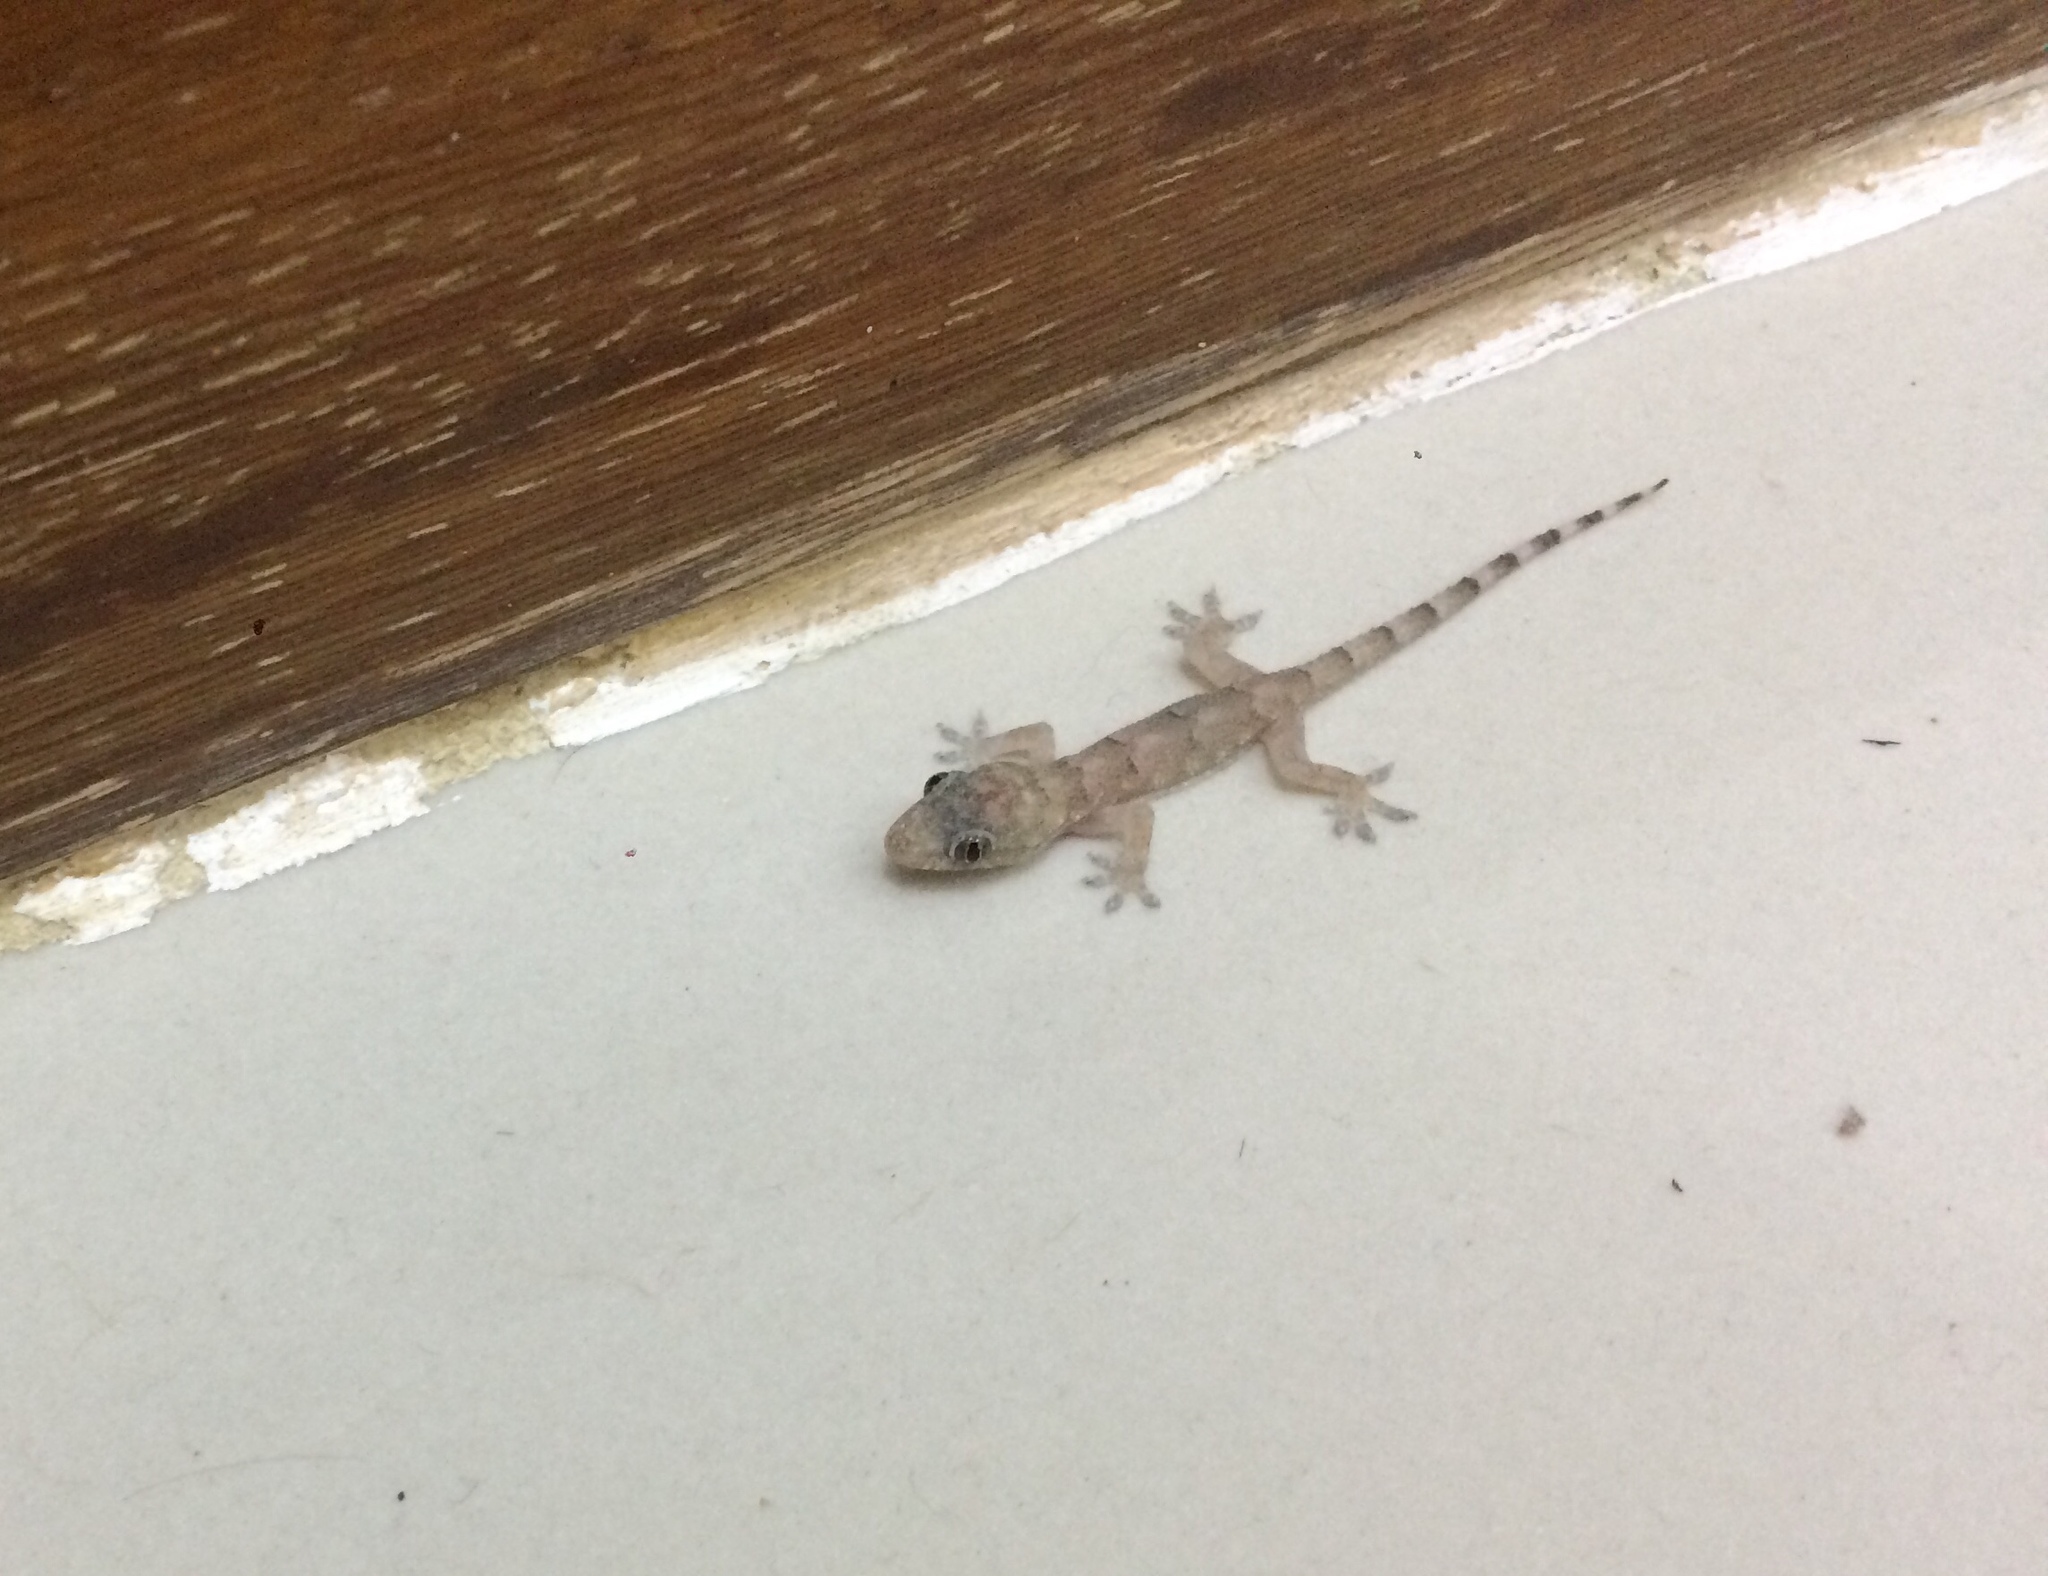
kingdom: Animalia
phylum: Chordata
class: Squamata
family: Gekkonidae
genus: Hemidactylus
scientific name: Hemidactylus mabouia
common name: House gecko
